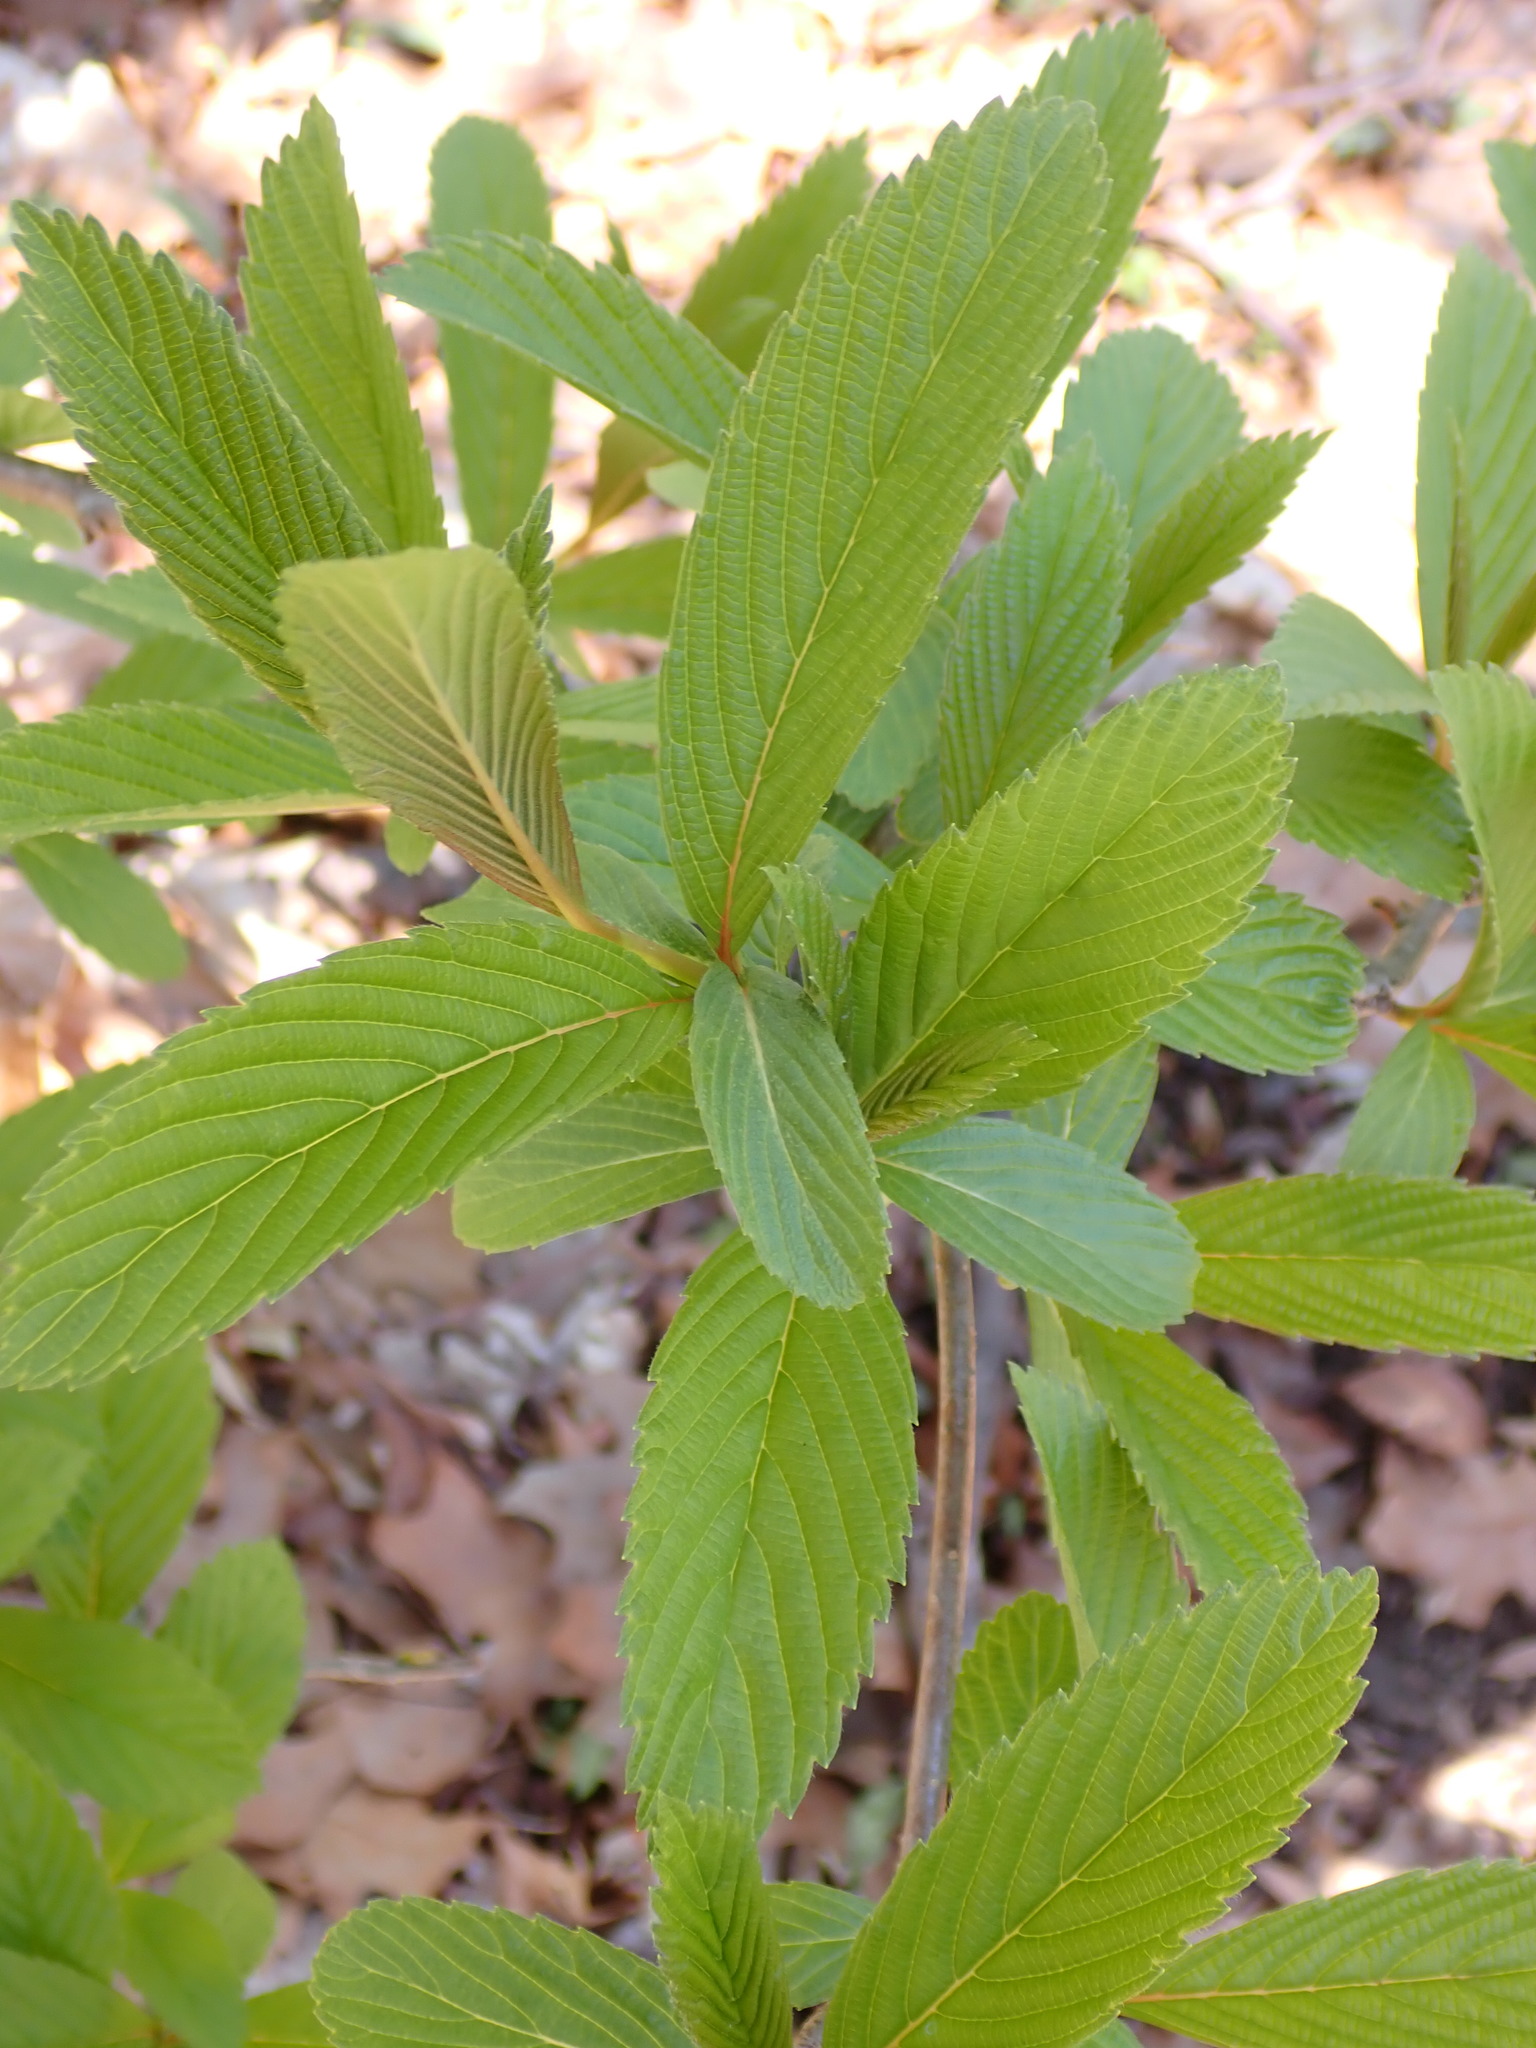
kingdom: Plantae
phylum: Tracheophyta
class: Magnoliopsida
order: Dipsacales
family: Viburnaceae
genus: Viburnum
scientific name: Viburnum sieboldii
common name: Siebold's arrowwood
